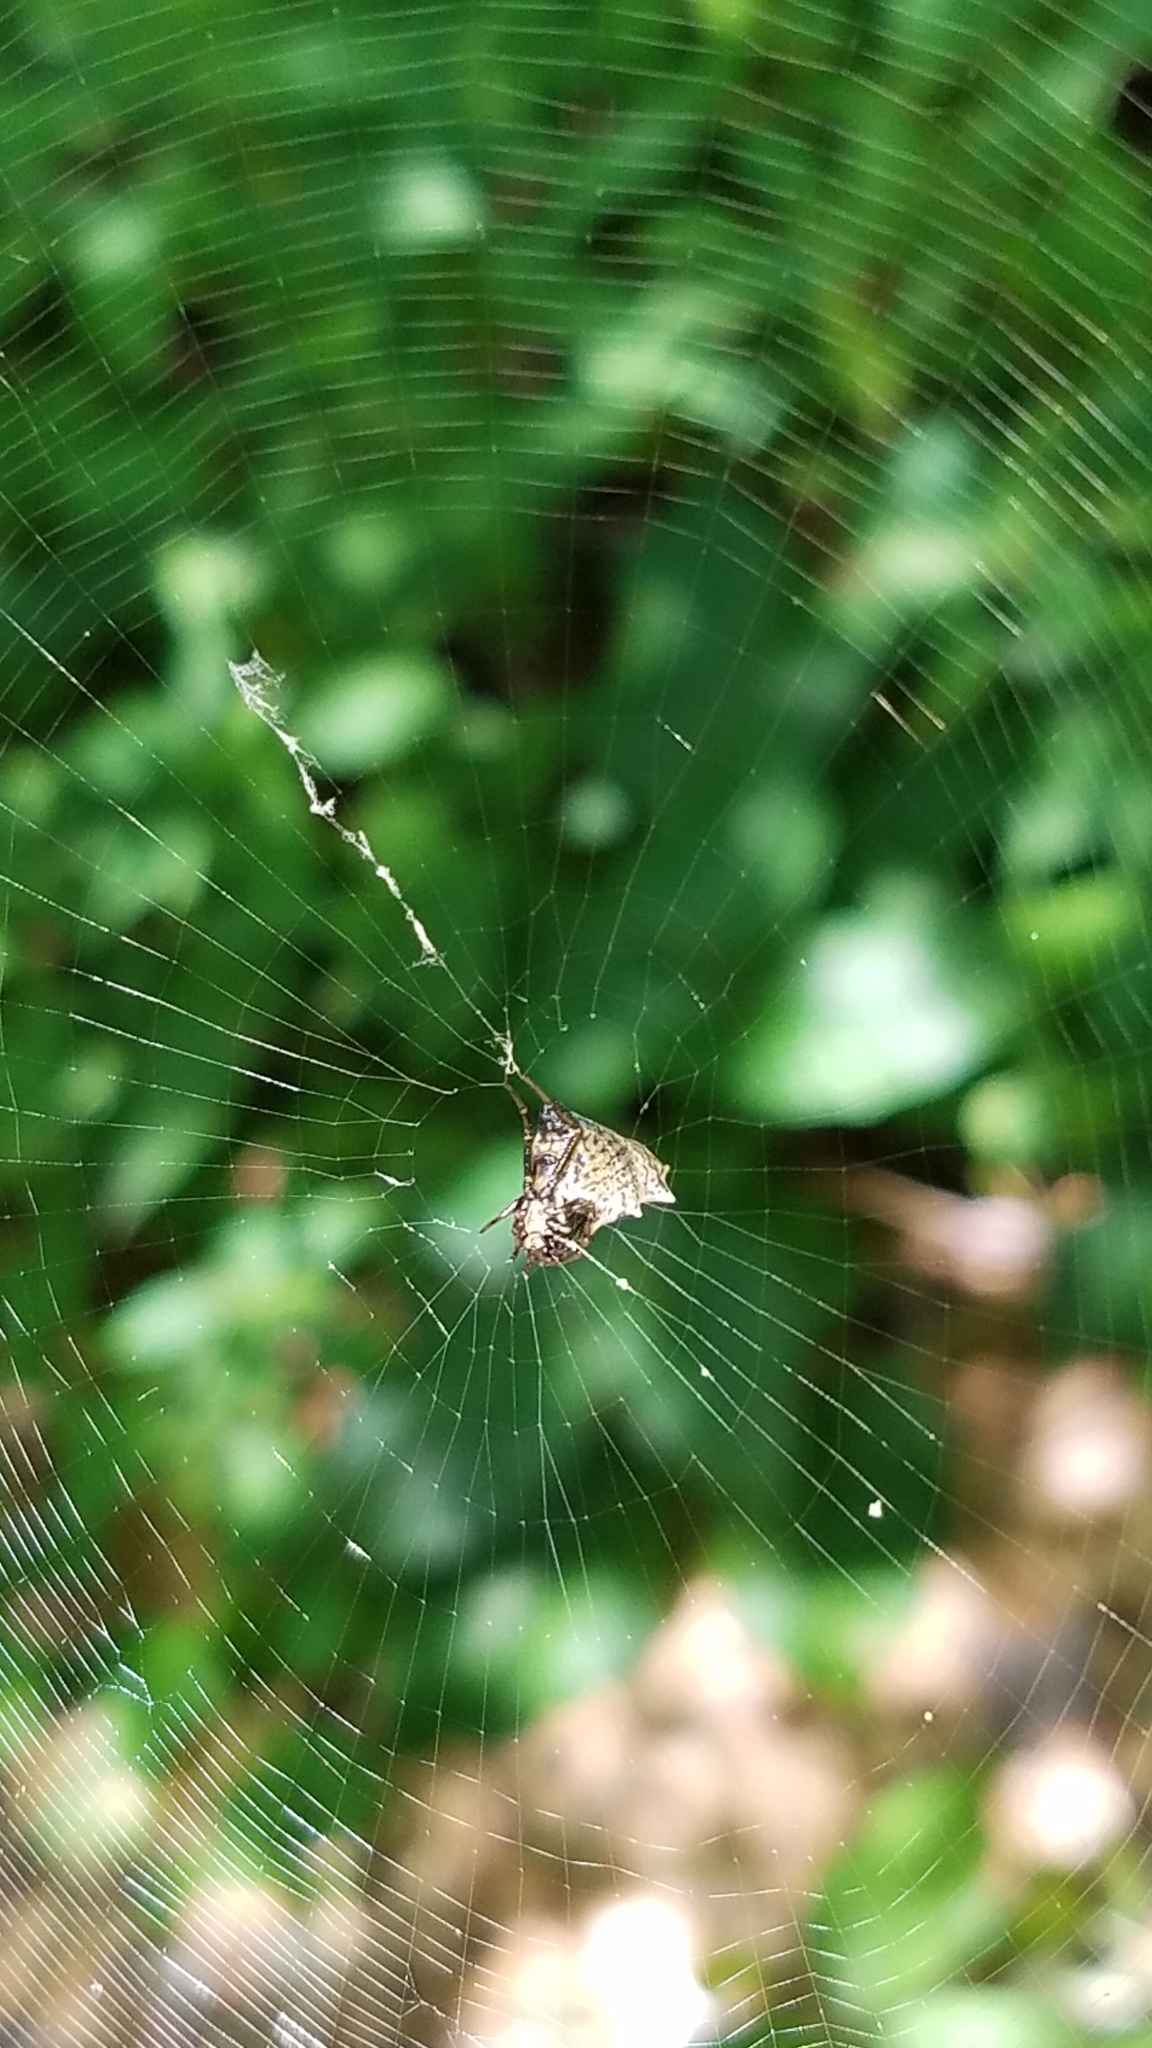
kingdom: Animalia
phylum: Arthropoda
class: Arachnida
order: Araneae
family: Araneidae
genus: Micrathena
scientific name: Micrathena gracilis
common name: Orb weavers
